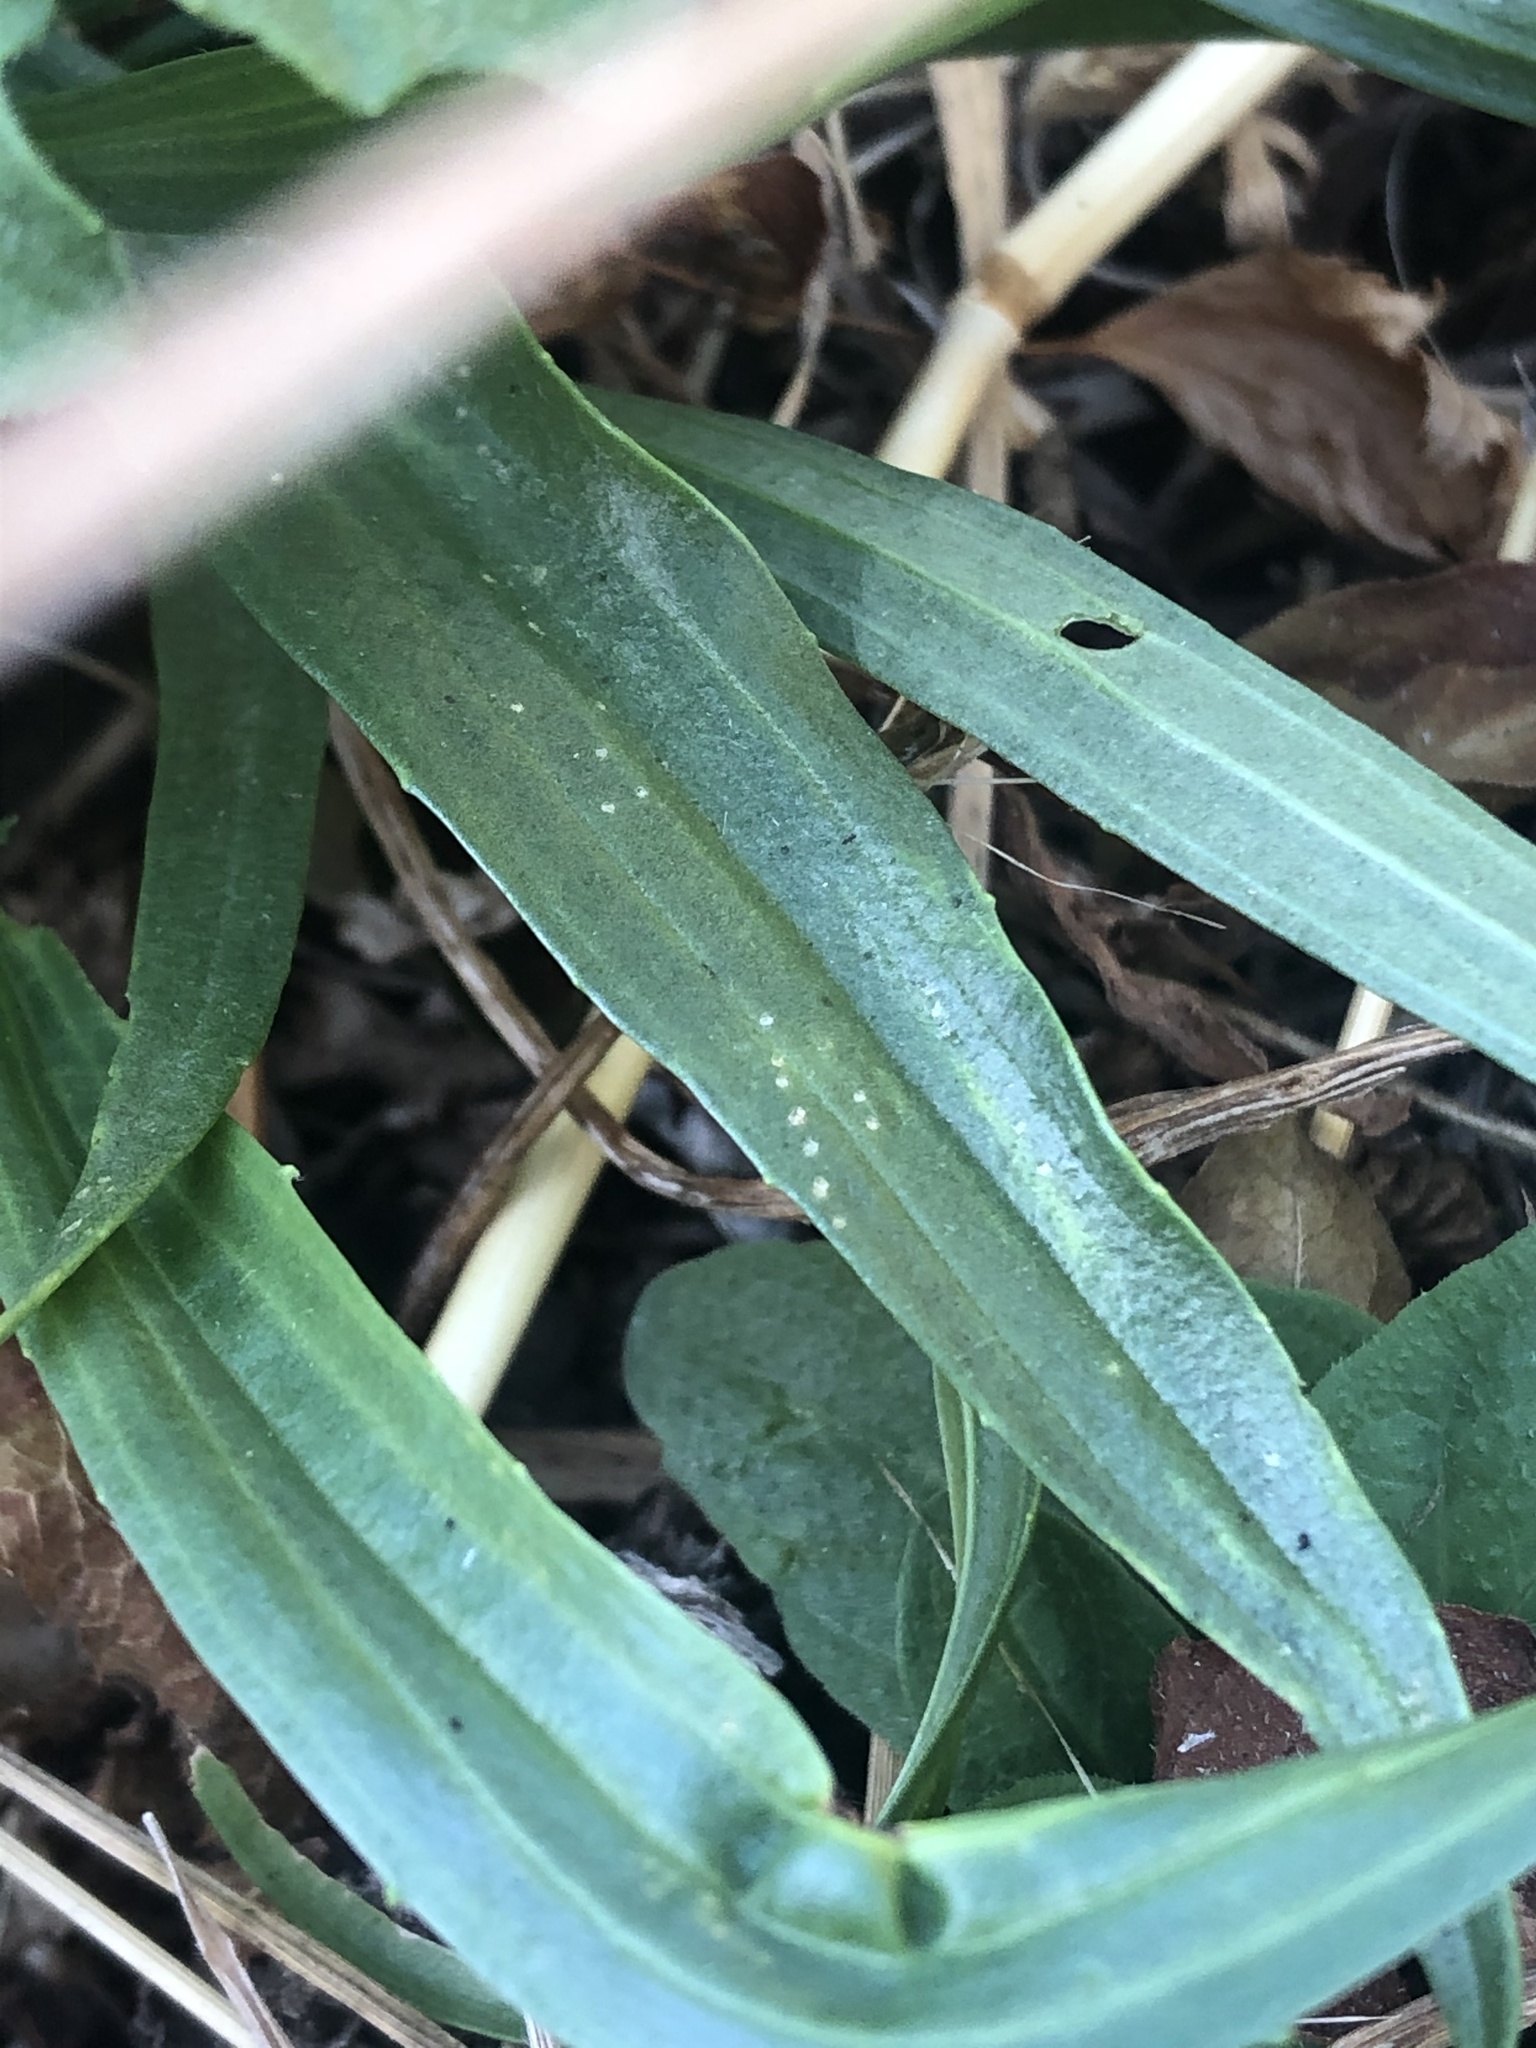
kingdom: Plantae
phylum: Tracheophyta
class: Magnoliopsida
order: Lamiales
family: Plantaginaceae
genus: Plantago
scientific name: Plantago lanceolata
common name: Ribwort plantain
